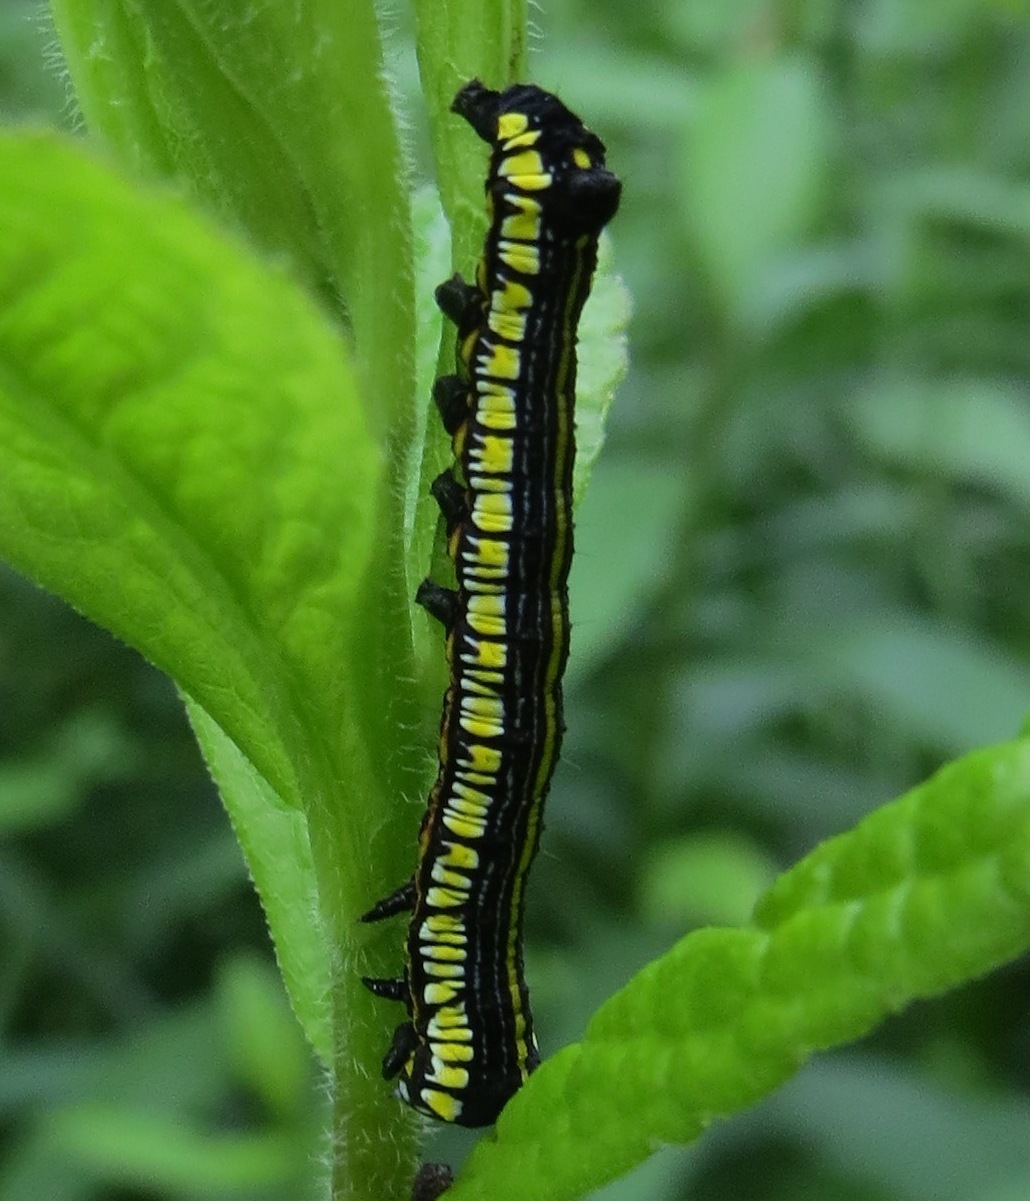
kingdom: Animalia
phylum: Arthropoda
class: Insecta
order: Lepidoptera
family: Noctuidae
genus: Cucullia
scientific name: Cucullia convexipennis
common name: Brown-hooded owlet
